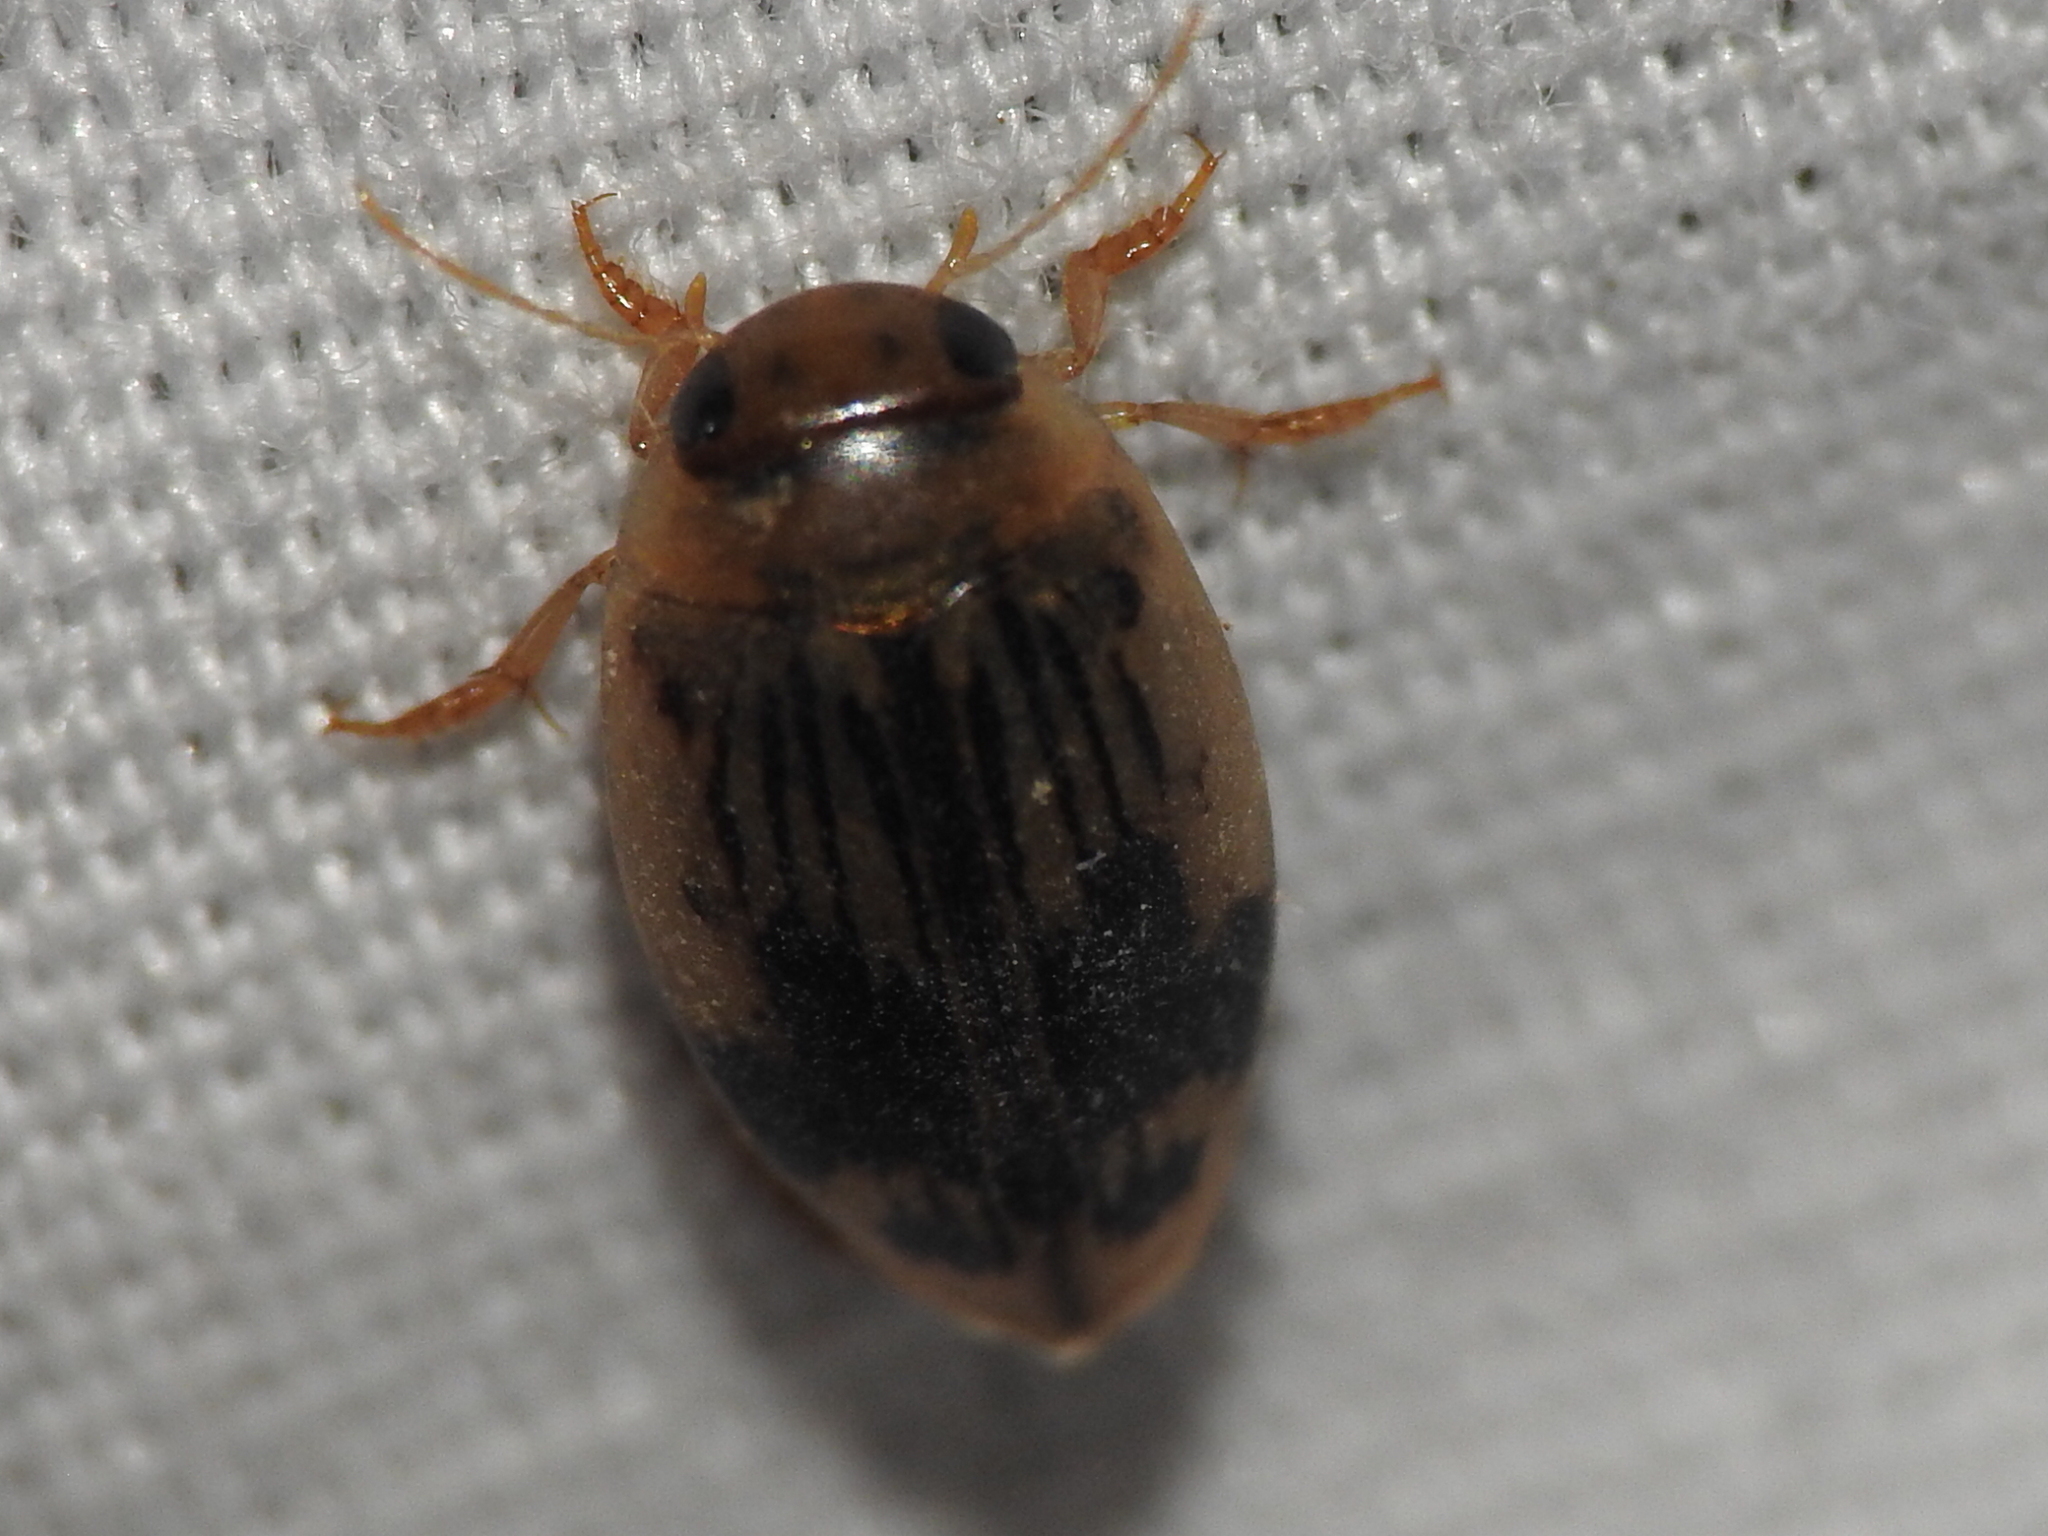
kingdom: Animalia
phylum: Arthropoda
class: Insecta
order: Coleoptera
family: Dytiscidae
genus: Laccophilus
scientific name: Laccophilus quadrilineatus
